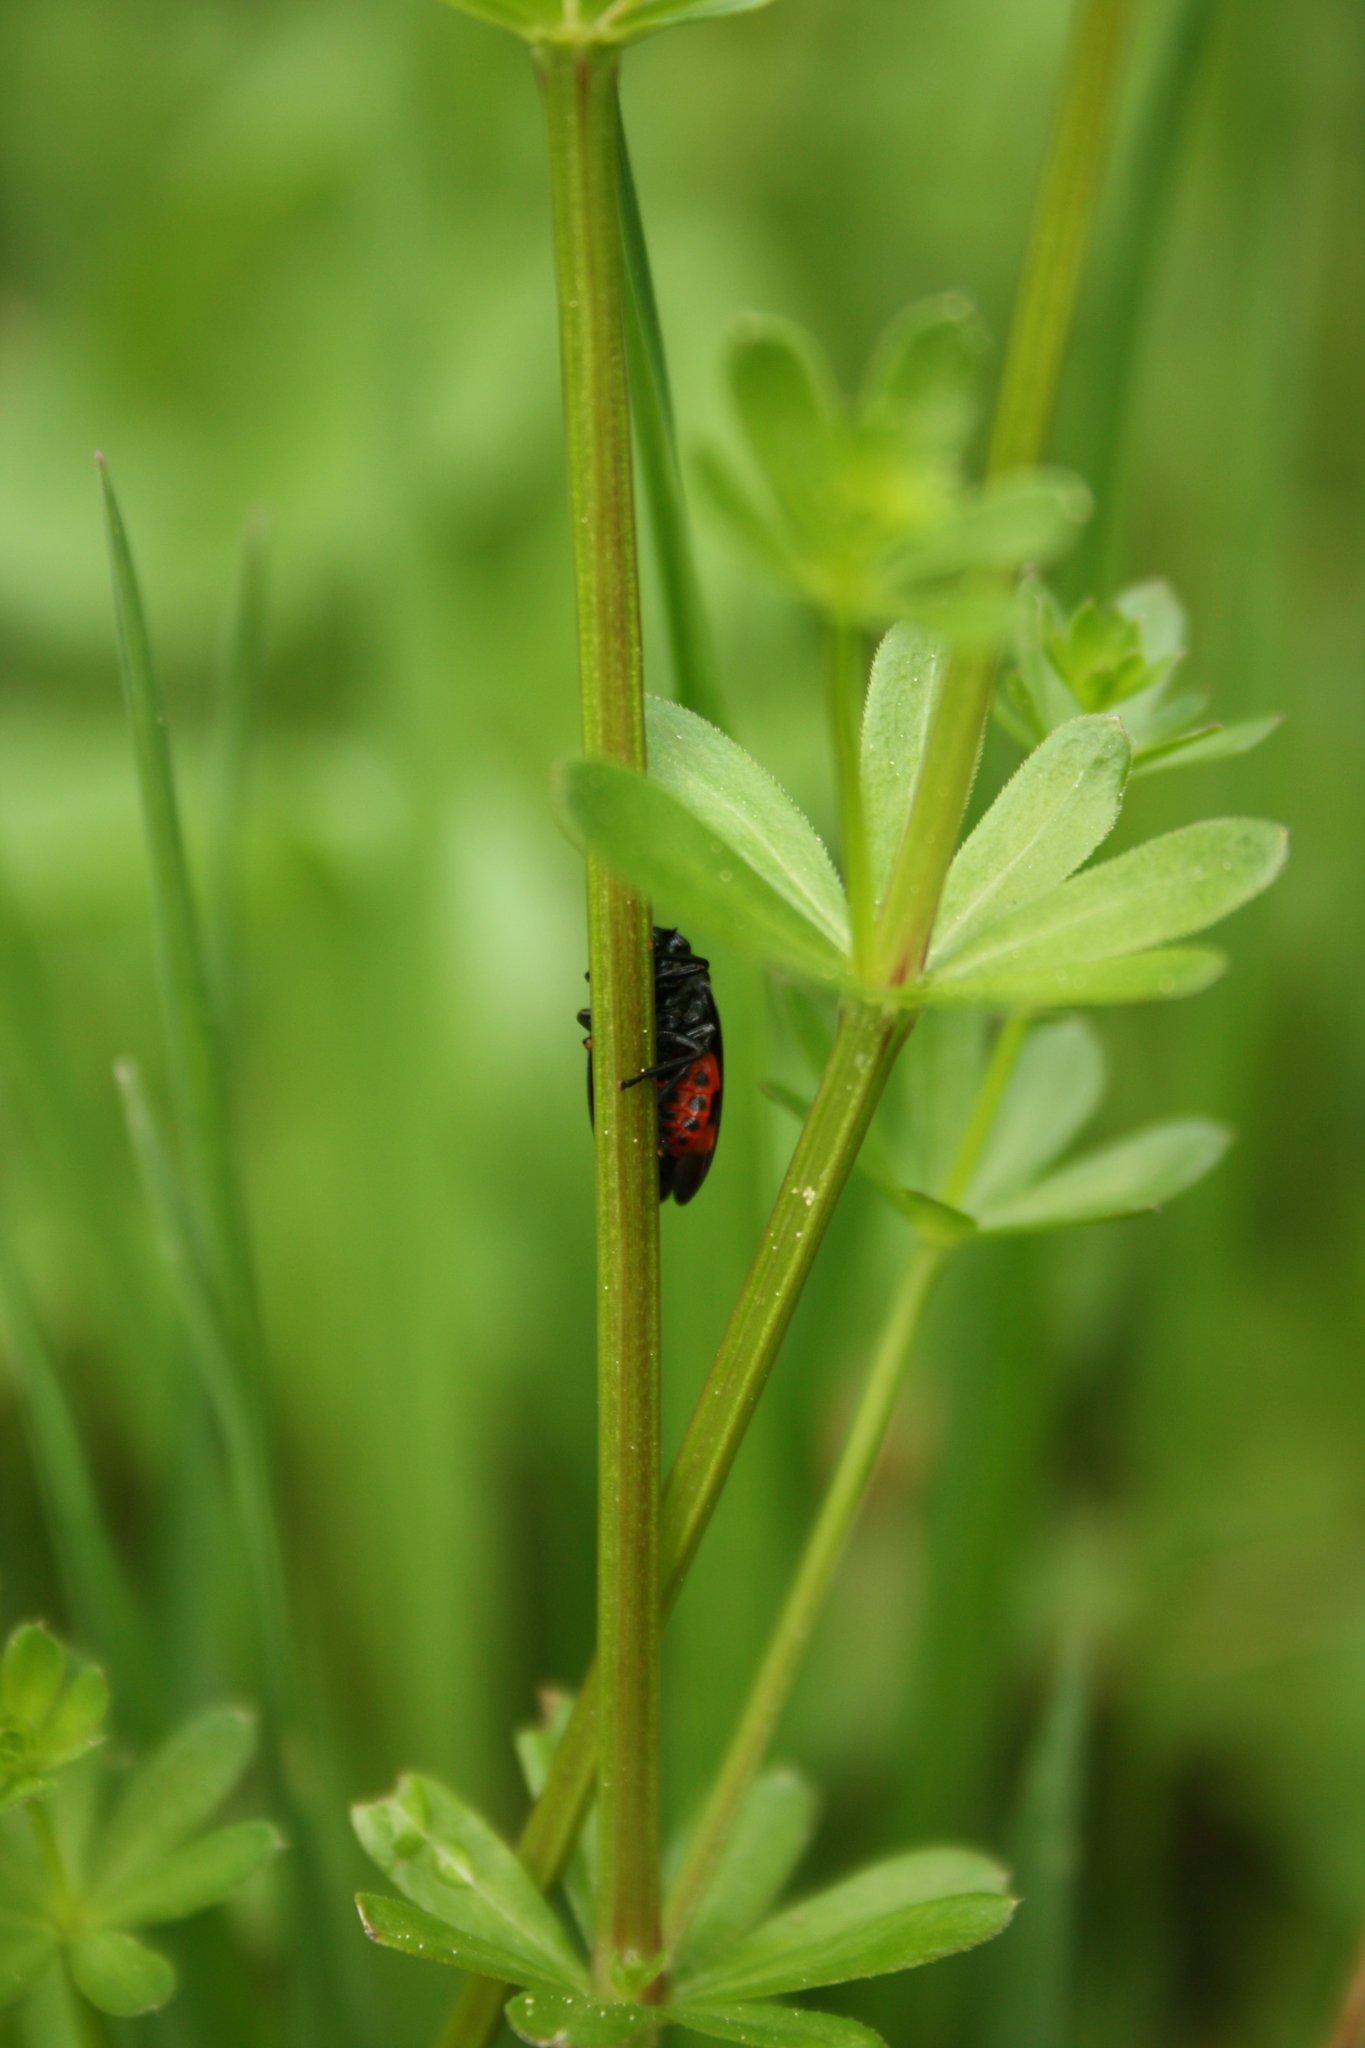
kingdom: Animalia
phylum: Arthropoda
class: Insecta
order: Hemiptera
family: Cercopidae
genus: Cercopis
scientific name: Cercopis sanguinolenta
